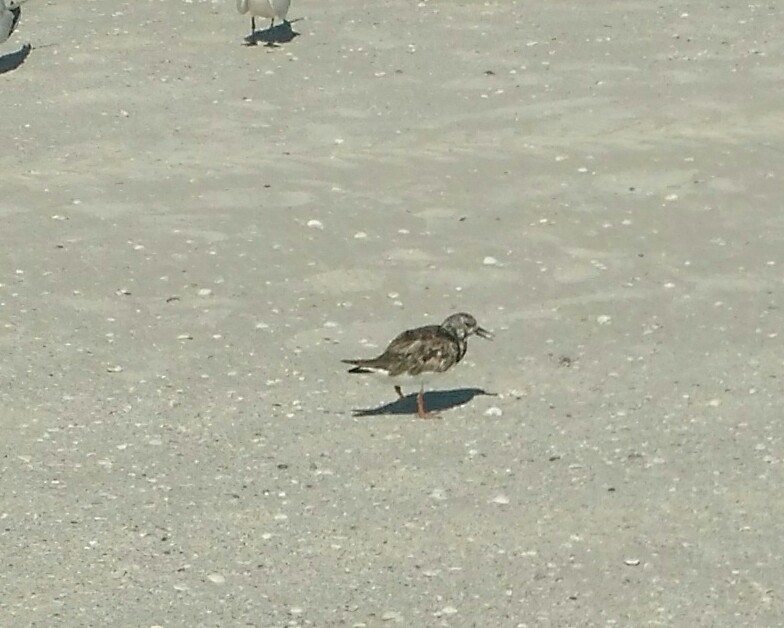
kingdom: Animalia
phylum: Chordata
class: Aves
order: Charadriiformes
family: Scolopacidae
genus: Arenaria
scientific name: Arenaria interpres
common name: Ruddy turnstone
